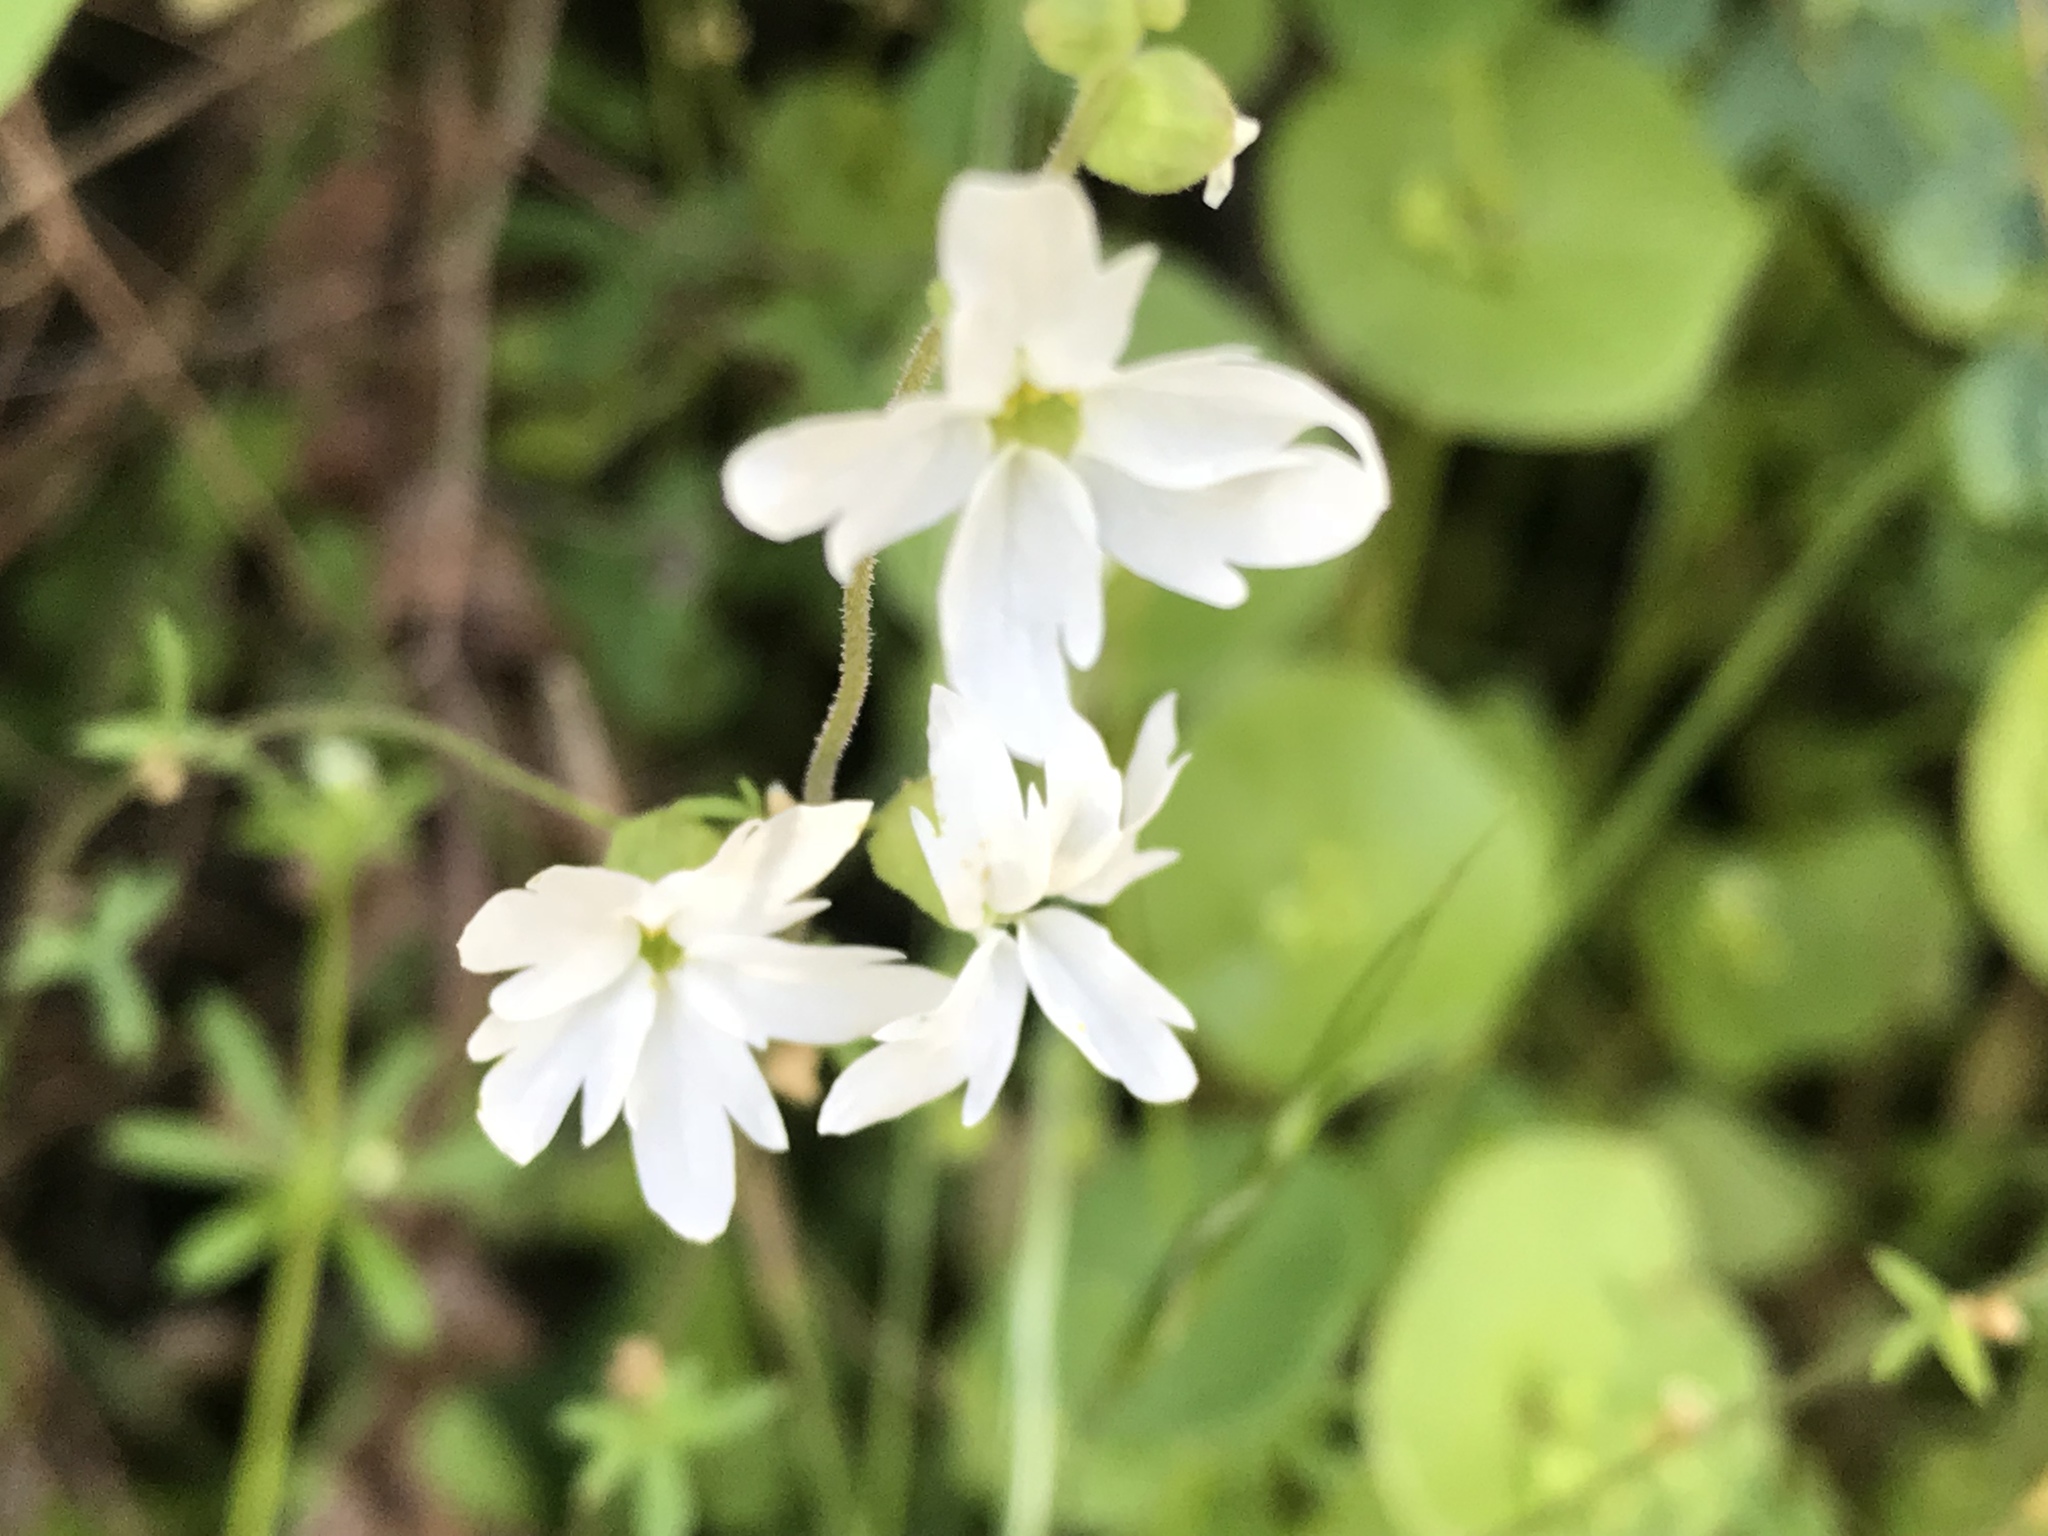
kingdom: Plantae
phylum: Tracheophyta
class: Magnoliopsida
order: Saxifragales
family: Saxifragaceae
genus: Lithophragma
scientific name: Lithophragma heterophyllum
